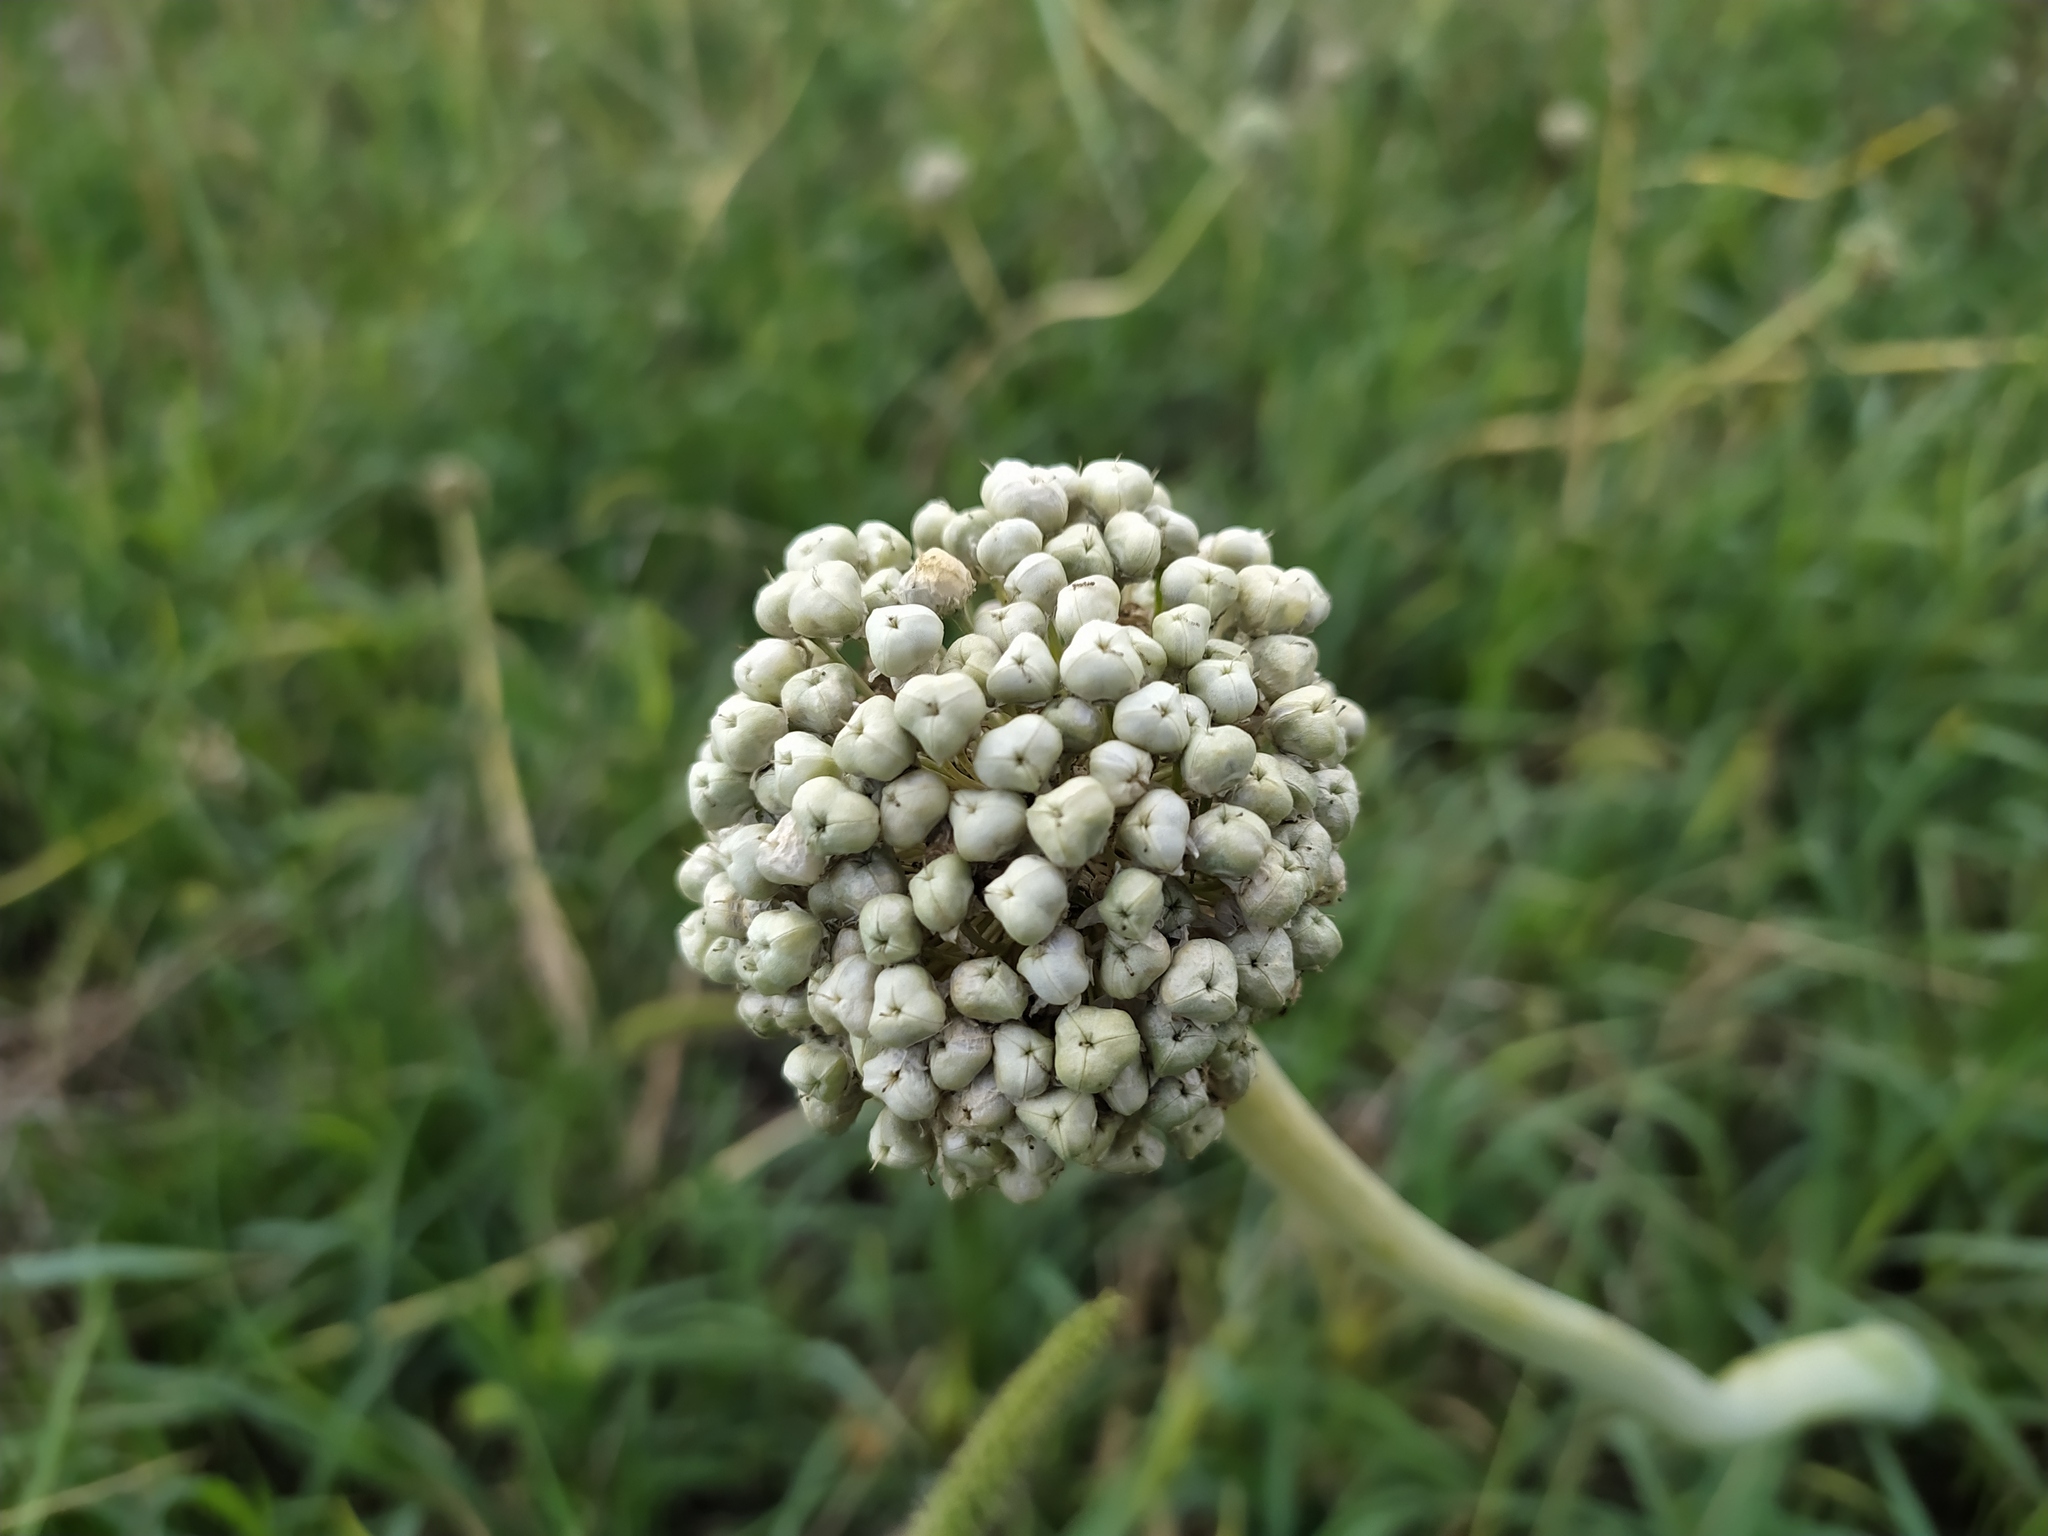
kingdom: Plantae
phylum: Tracheophyta
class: Liliopsida
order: Asparagales
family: Amaryllidaceae
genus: Allium
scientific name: Allium cepa
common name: Onion
